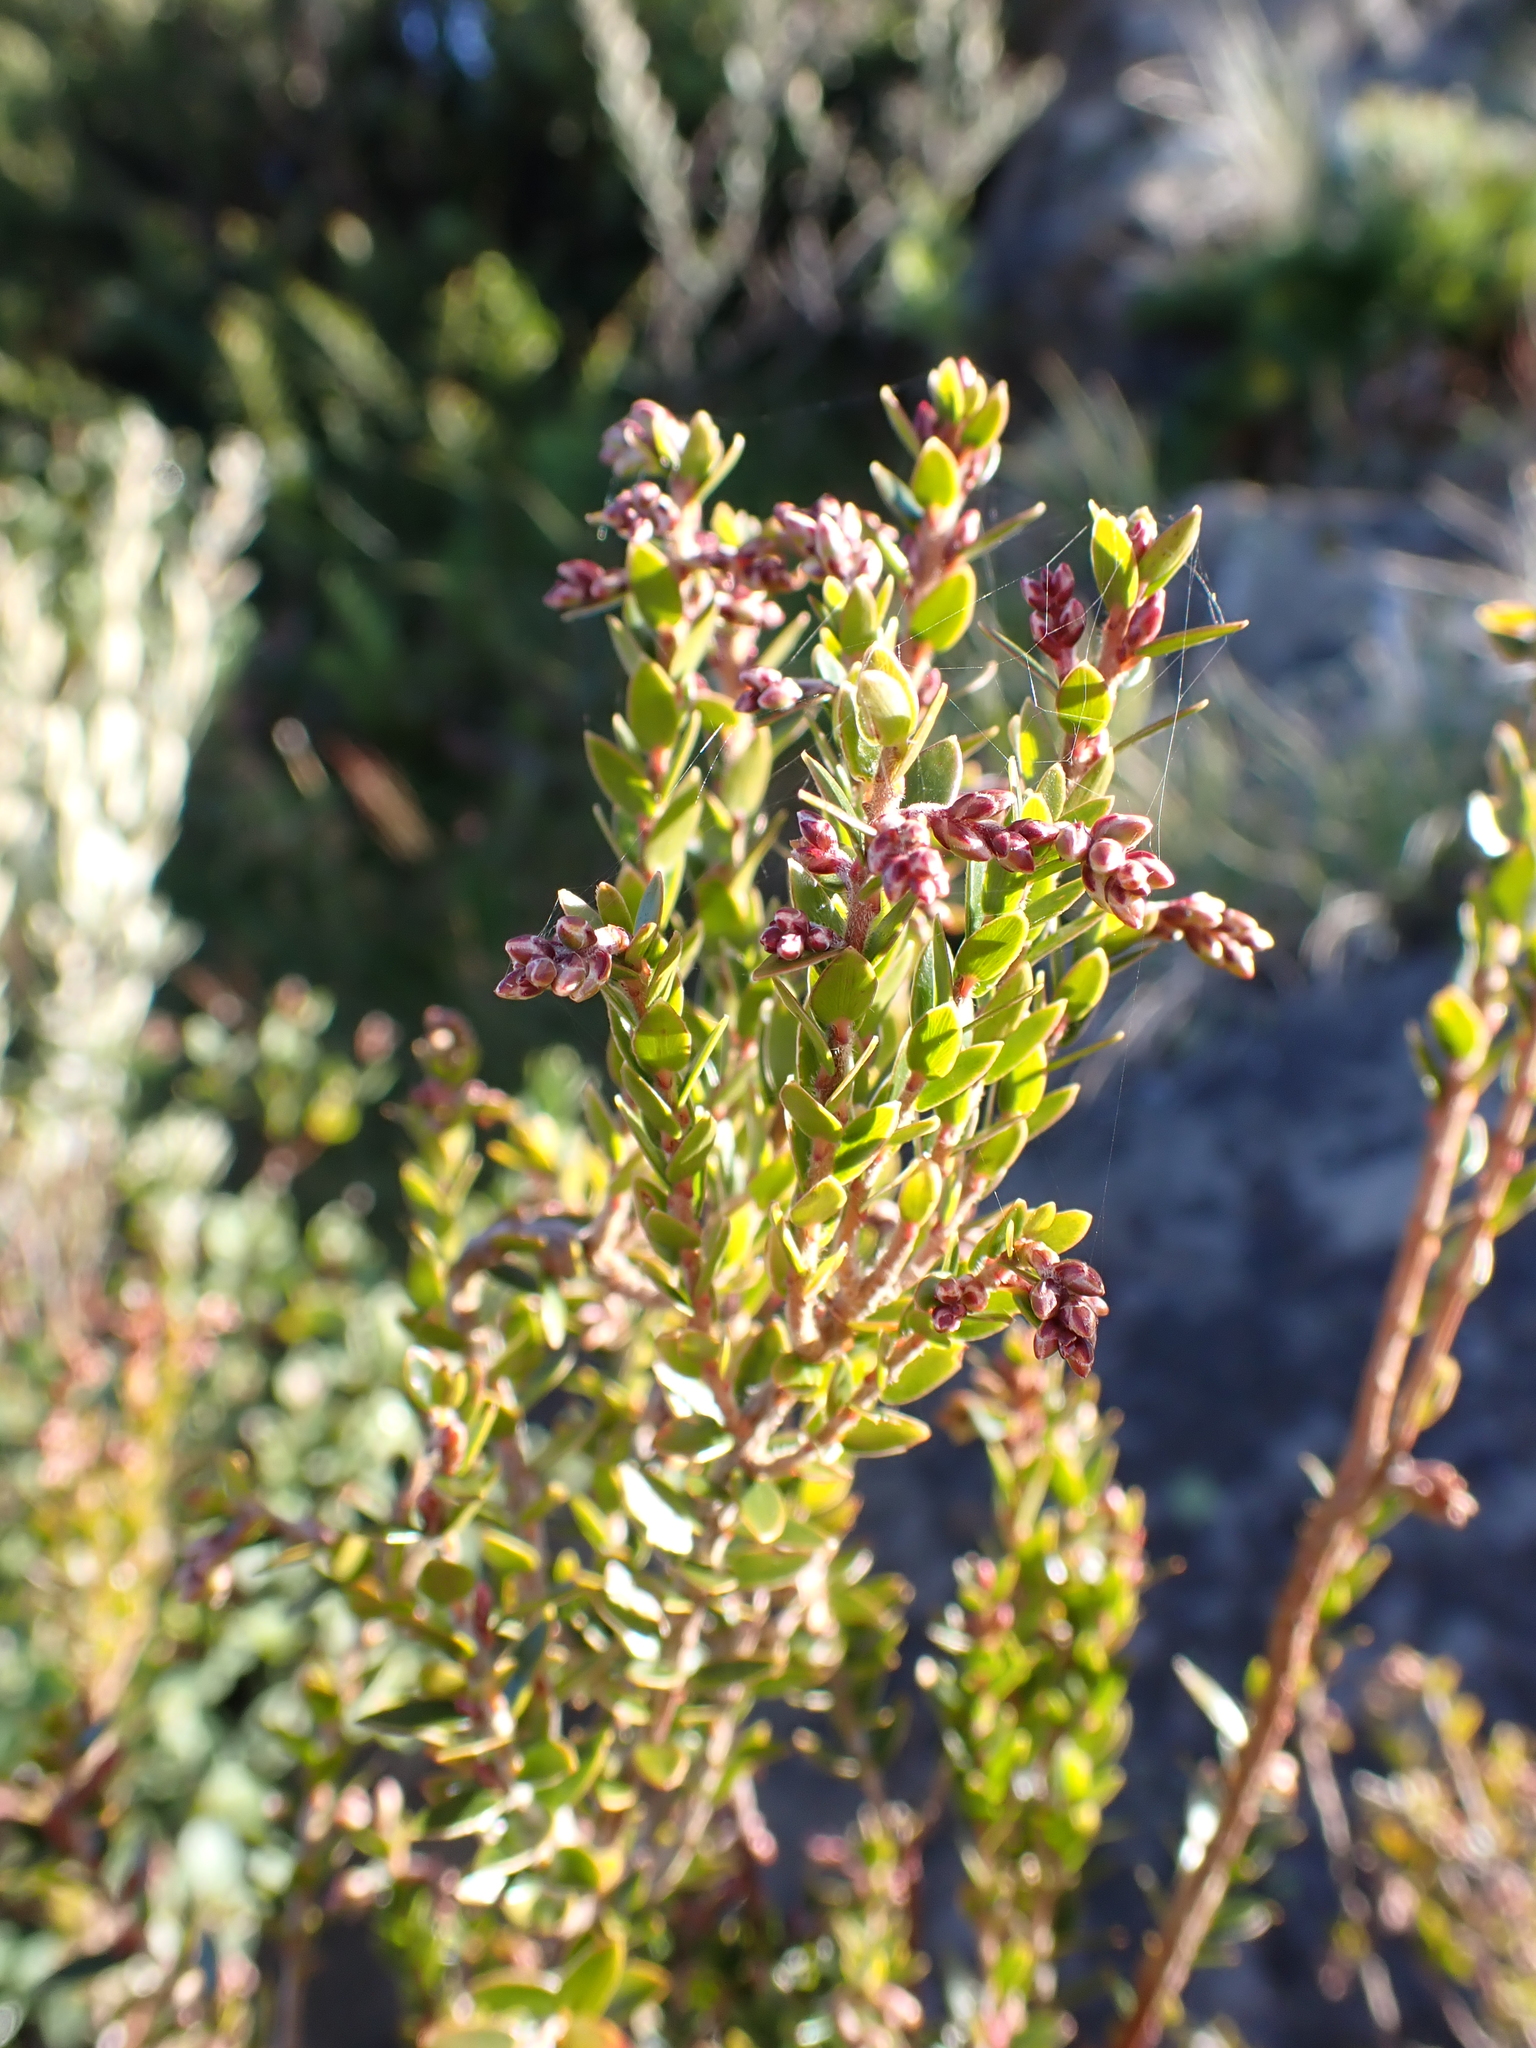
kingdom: Plantae
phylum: Tracheophyta
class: Magnoliopsida
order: Ericales
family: Ericaceae
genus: Acrothamnus
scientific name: Acrothamnus maccraei
